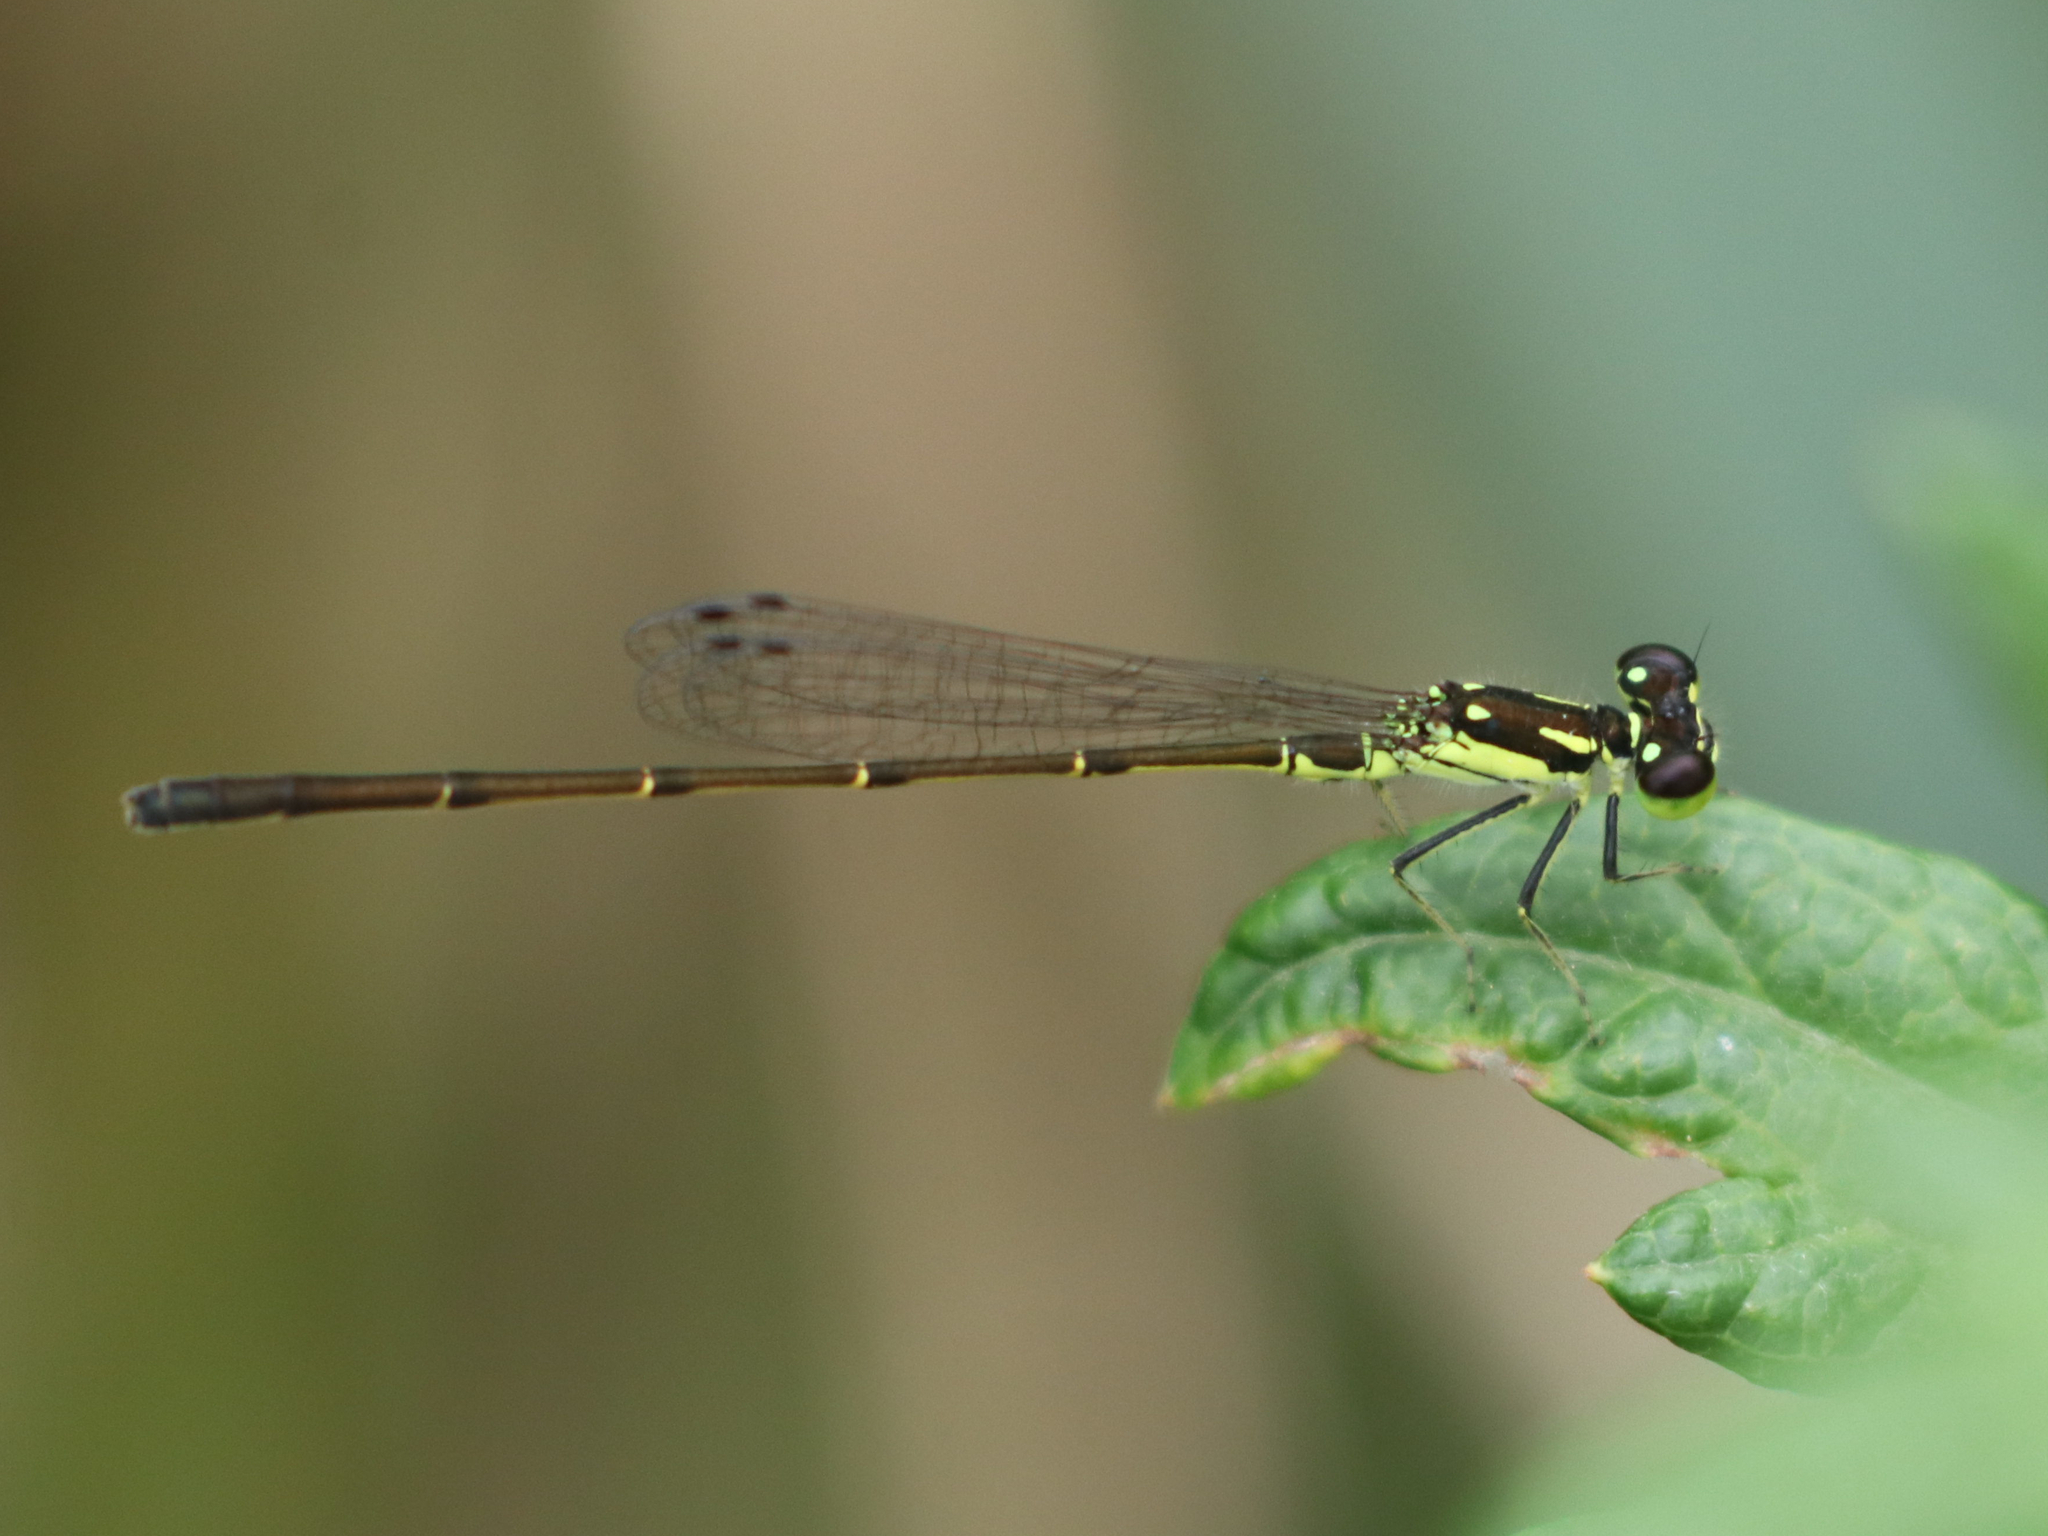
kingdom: Animalia
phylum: Arthropoda
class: Insecta
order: Odonata
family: Coenagrionidae
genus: Ischnura
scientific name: Ischnura posita
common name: Fragile forktail
